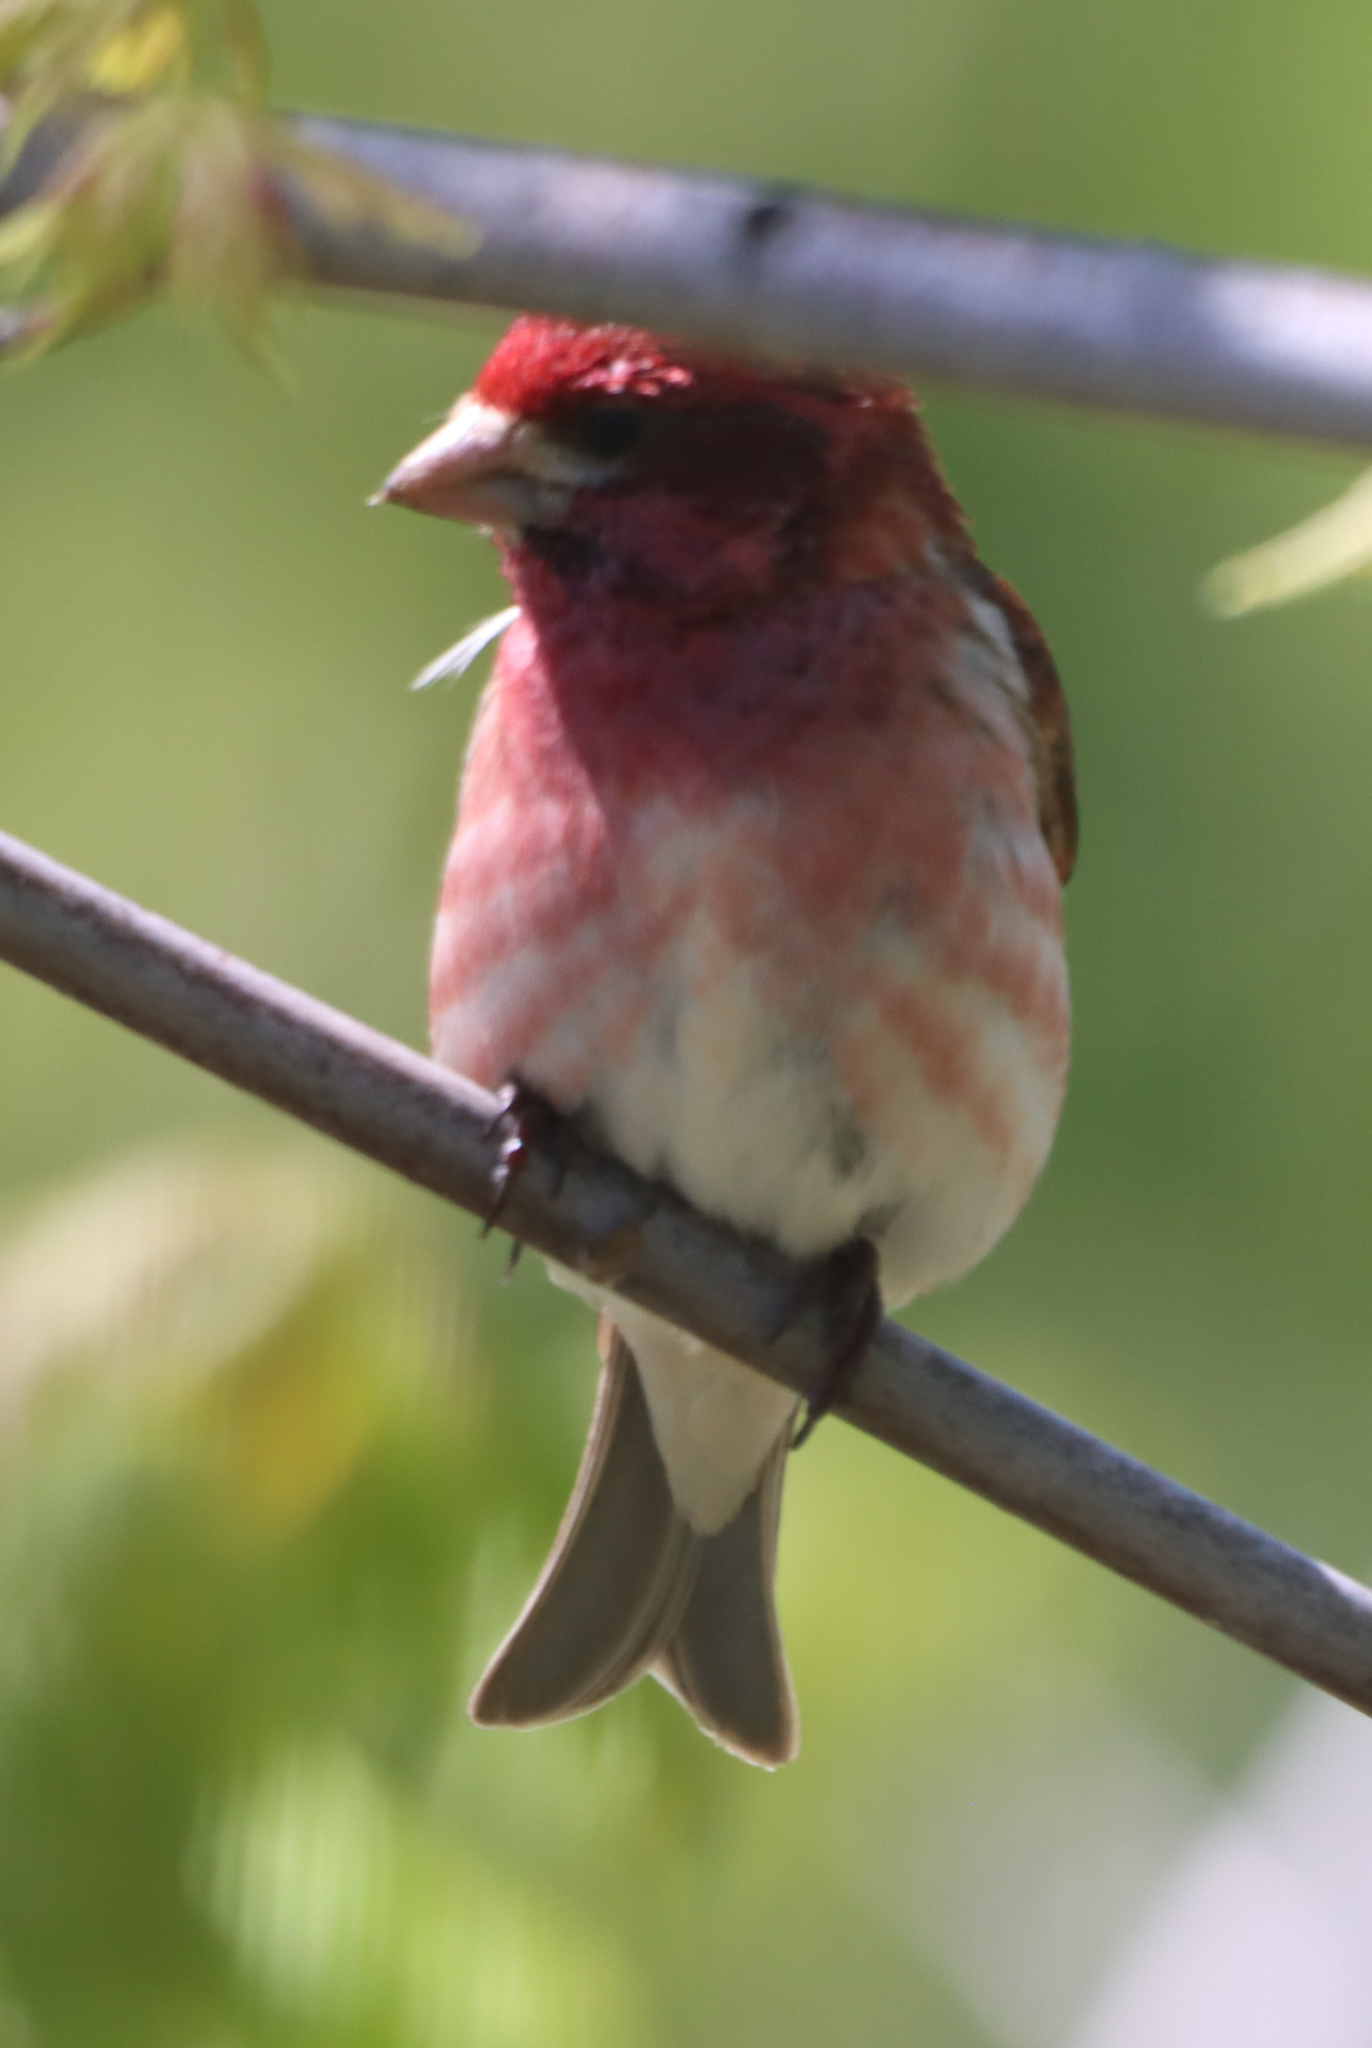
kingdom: Animalia
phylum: Chordata
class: Aves
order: Passeriformes
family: Fringillidae
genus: Haemorhous
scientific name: Haemorhous purpureus
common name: Purple finch
